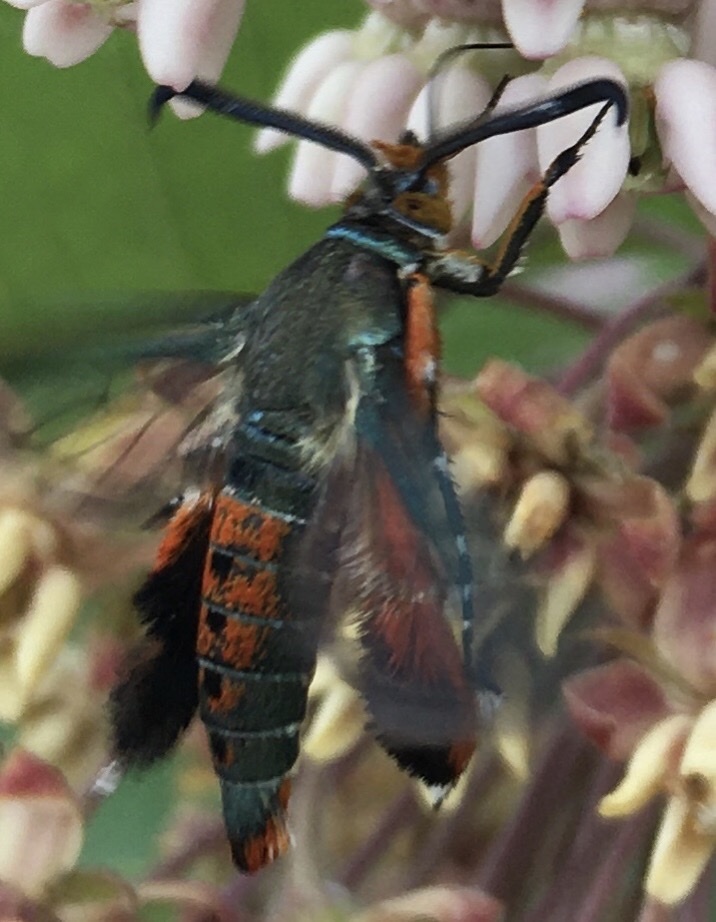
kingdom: Animalia
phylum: Arthropoda
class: Insecta
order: Lepidoptera
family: Sesiidae
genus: Eichlinia
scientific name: Eichlinia cucurbitae
